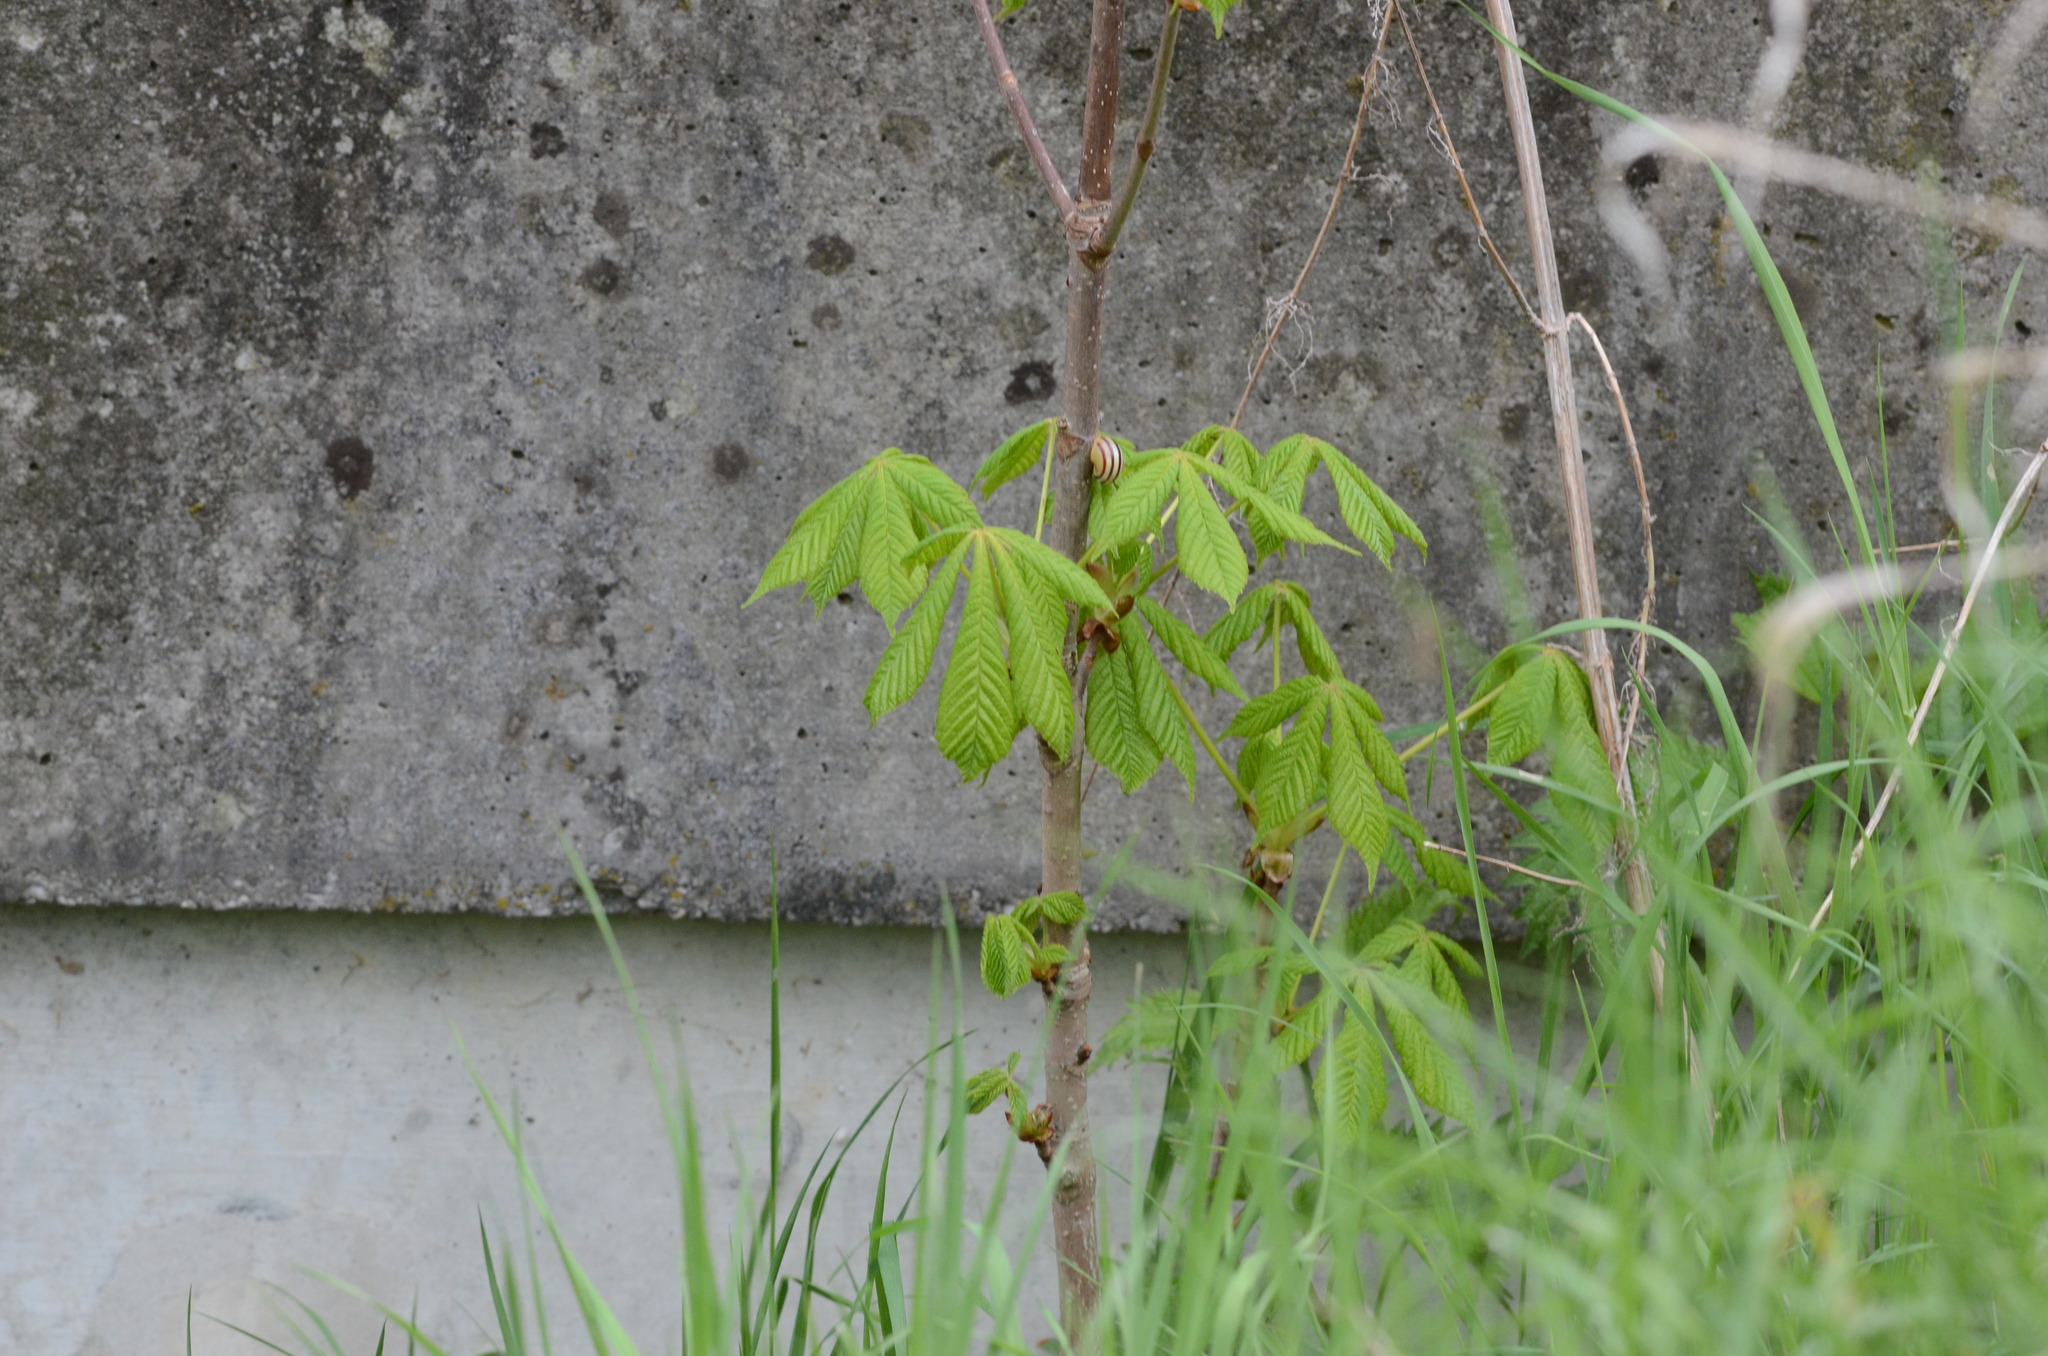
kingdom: Plantae
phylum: Tracheophyta
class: Magnoliopsida
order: Sapindales
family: Sapindaceae
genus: Aesculus
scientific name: Aesculus hippocastanum
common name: Horse-chestnut
